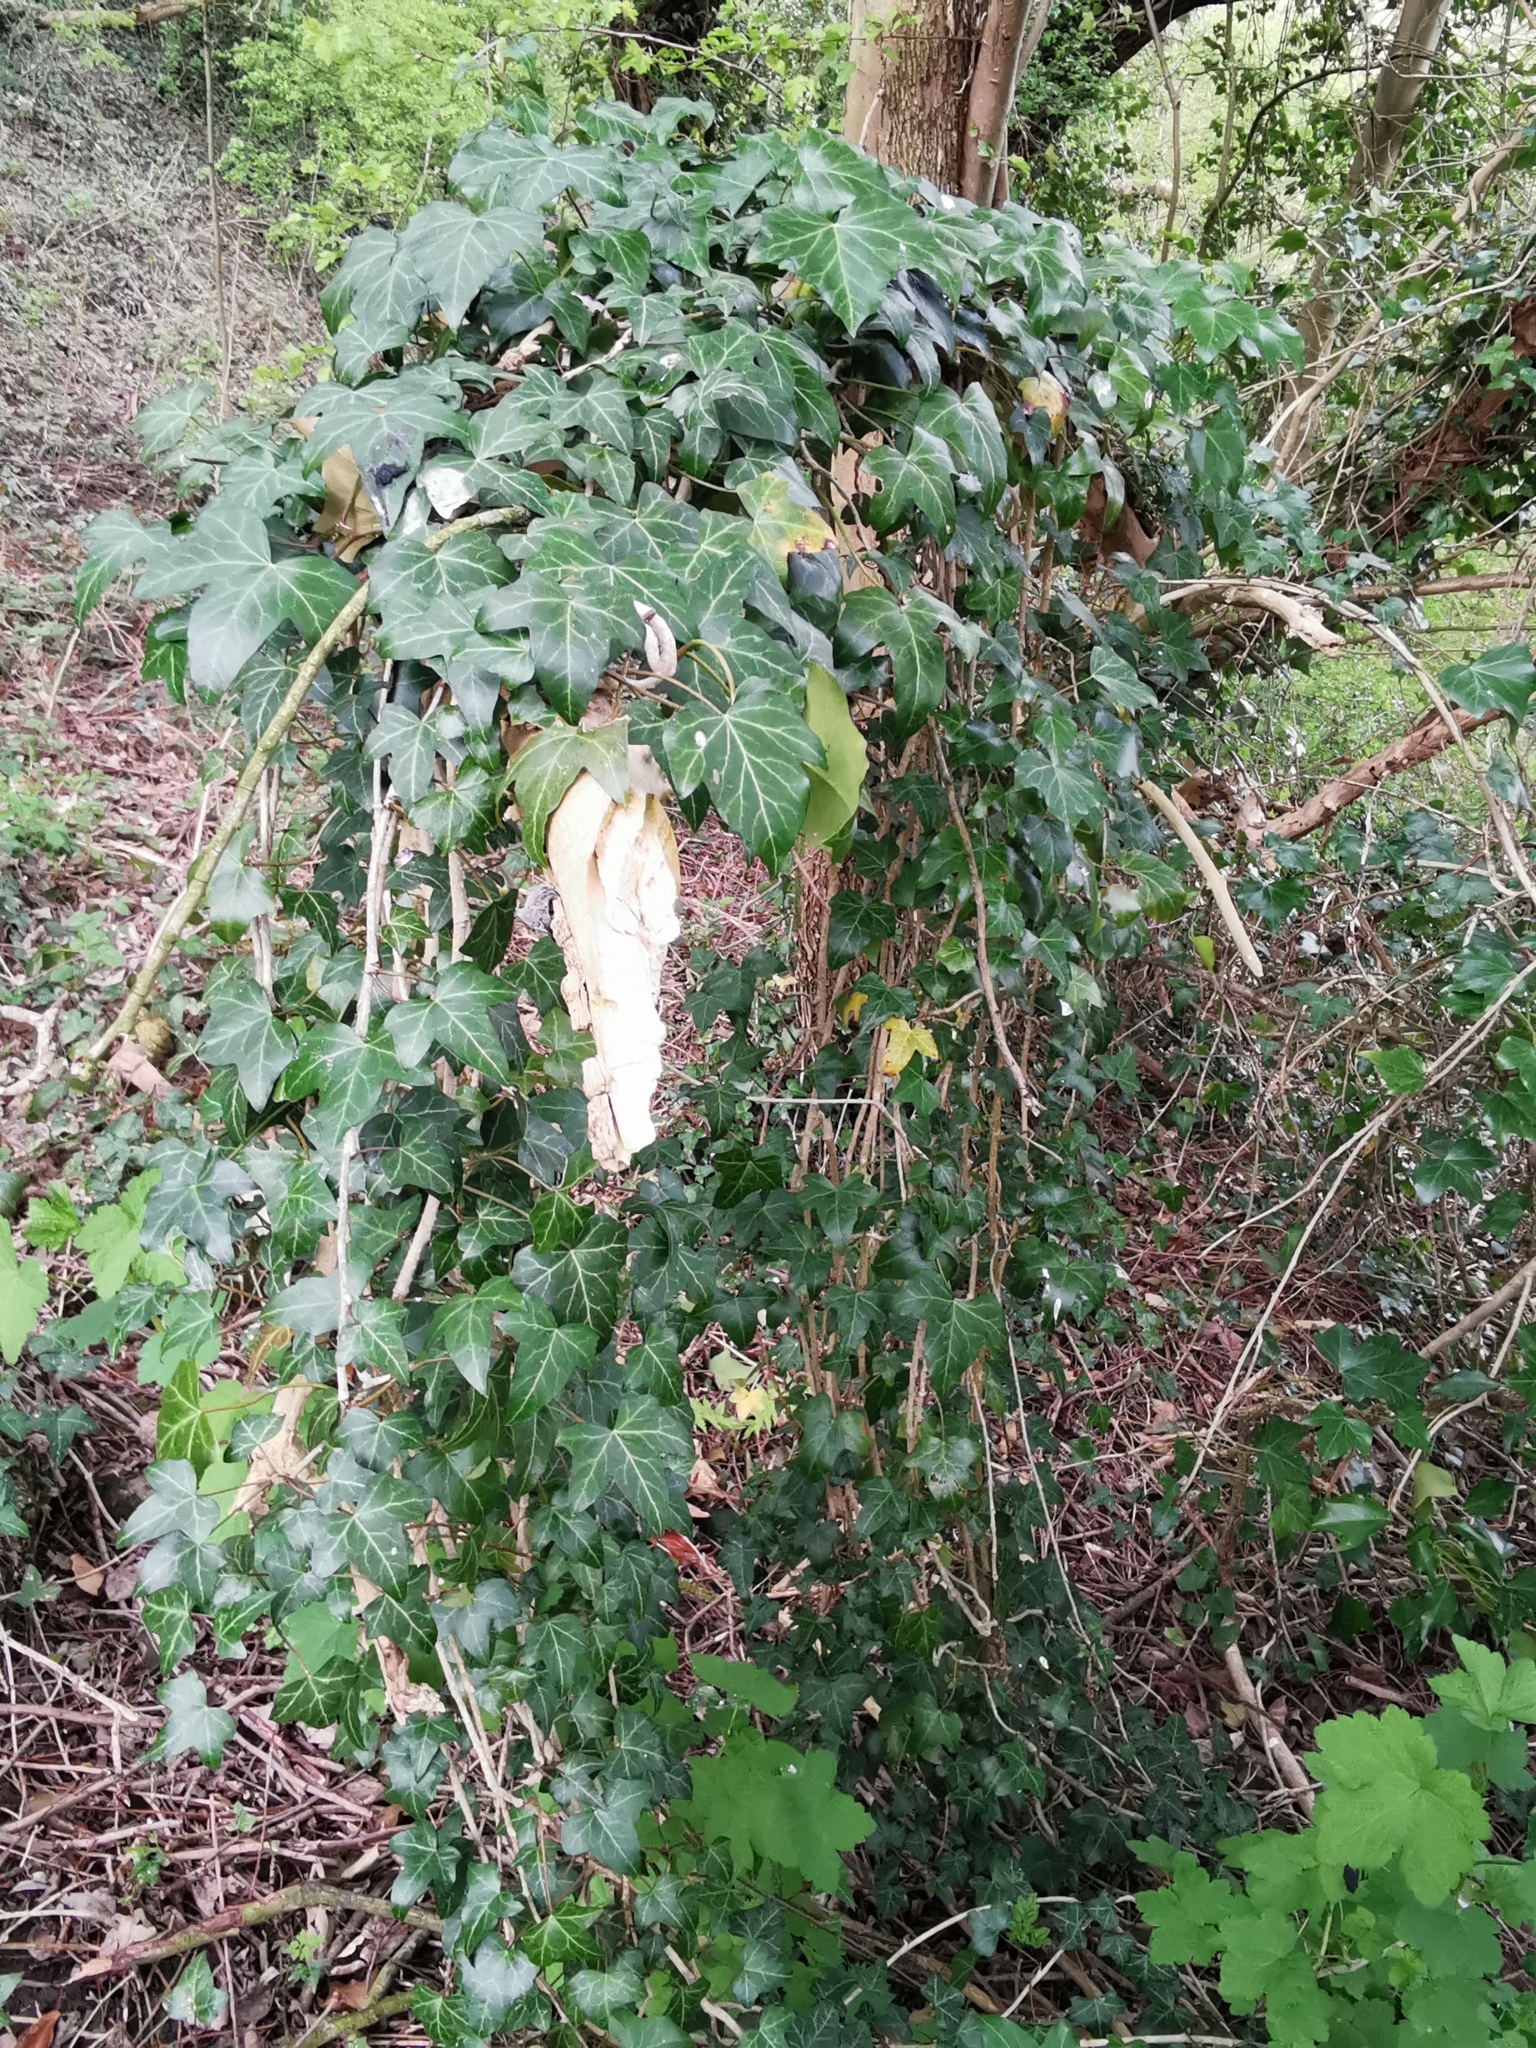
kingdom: Plantae
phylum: Tracheophyta
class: Magnoliopsida
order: Apiales
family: Araliaceae
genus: Hedera
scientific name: Hedera helix
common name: Ivy
